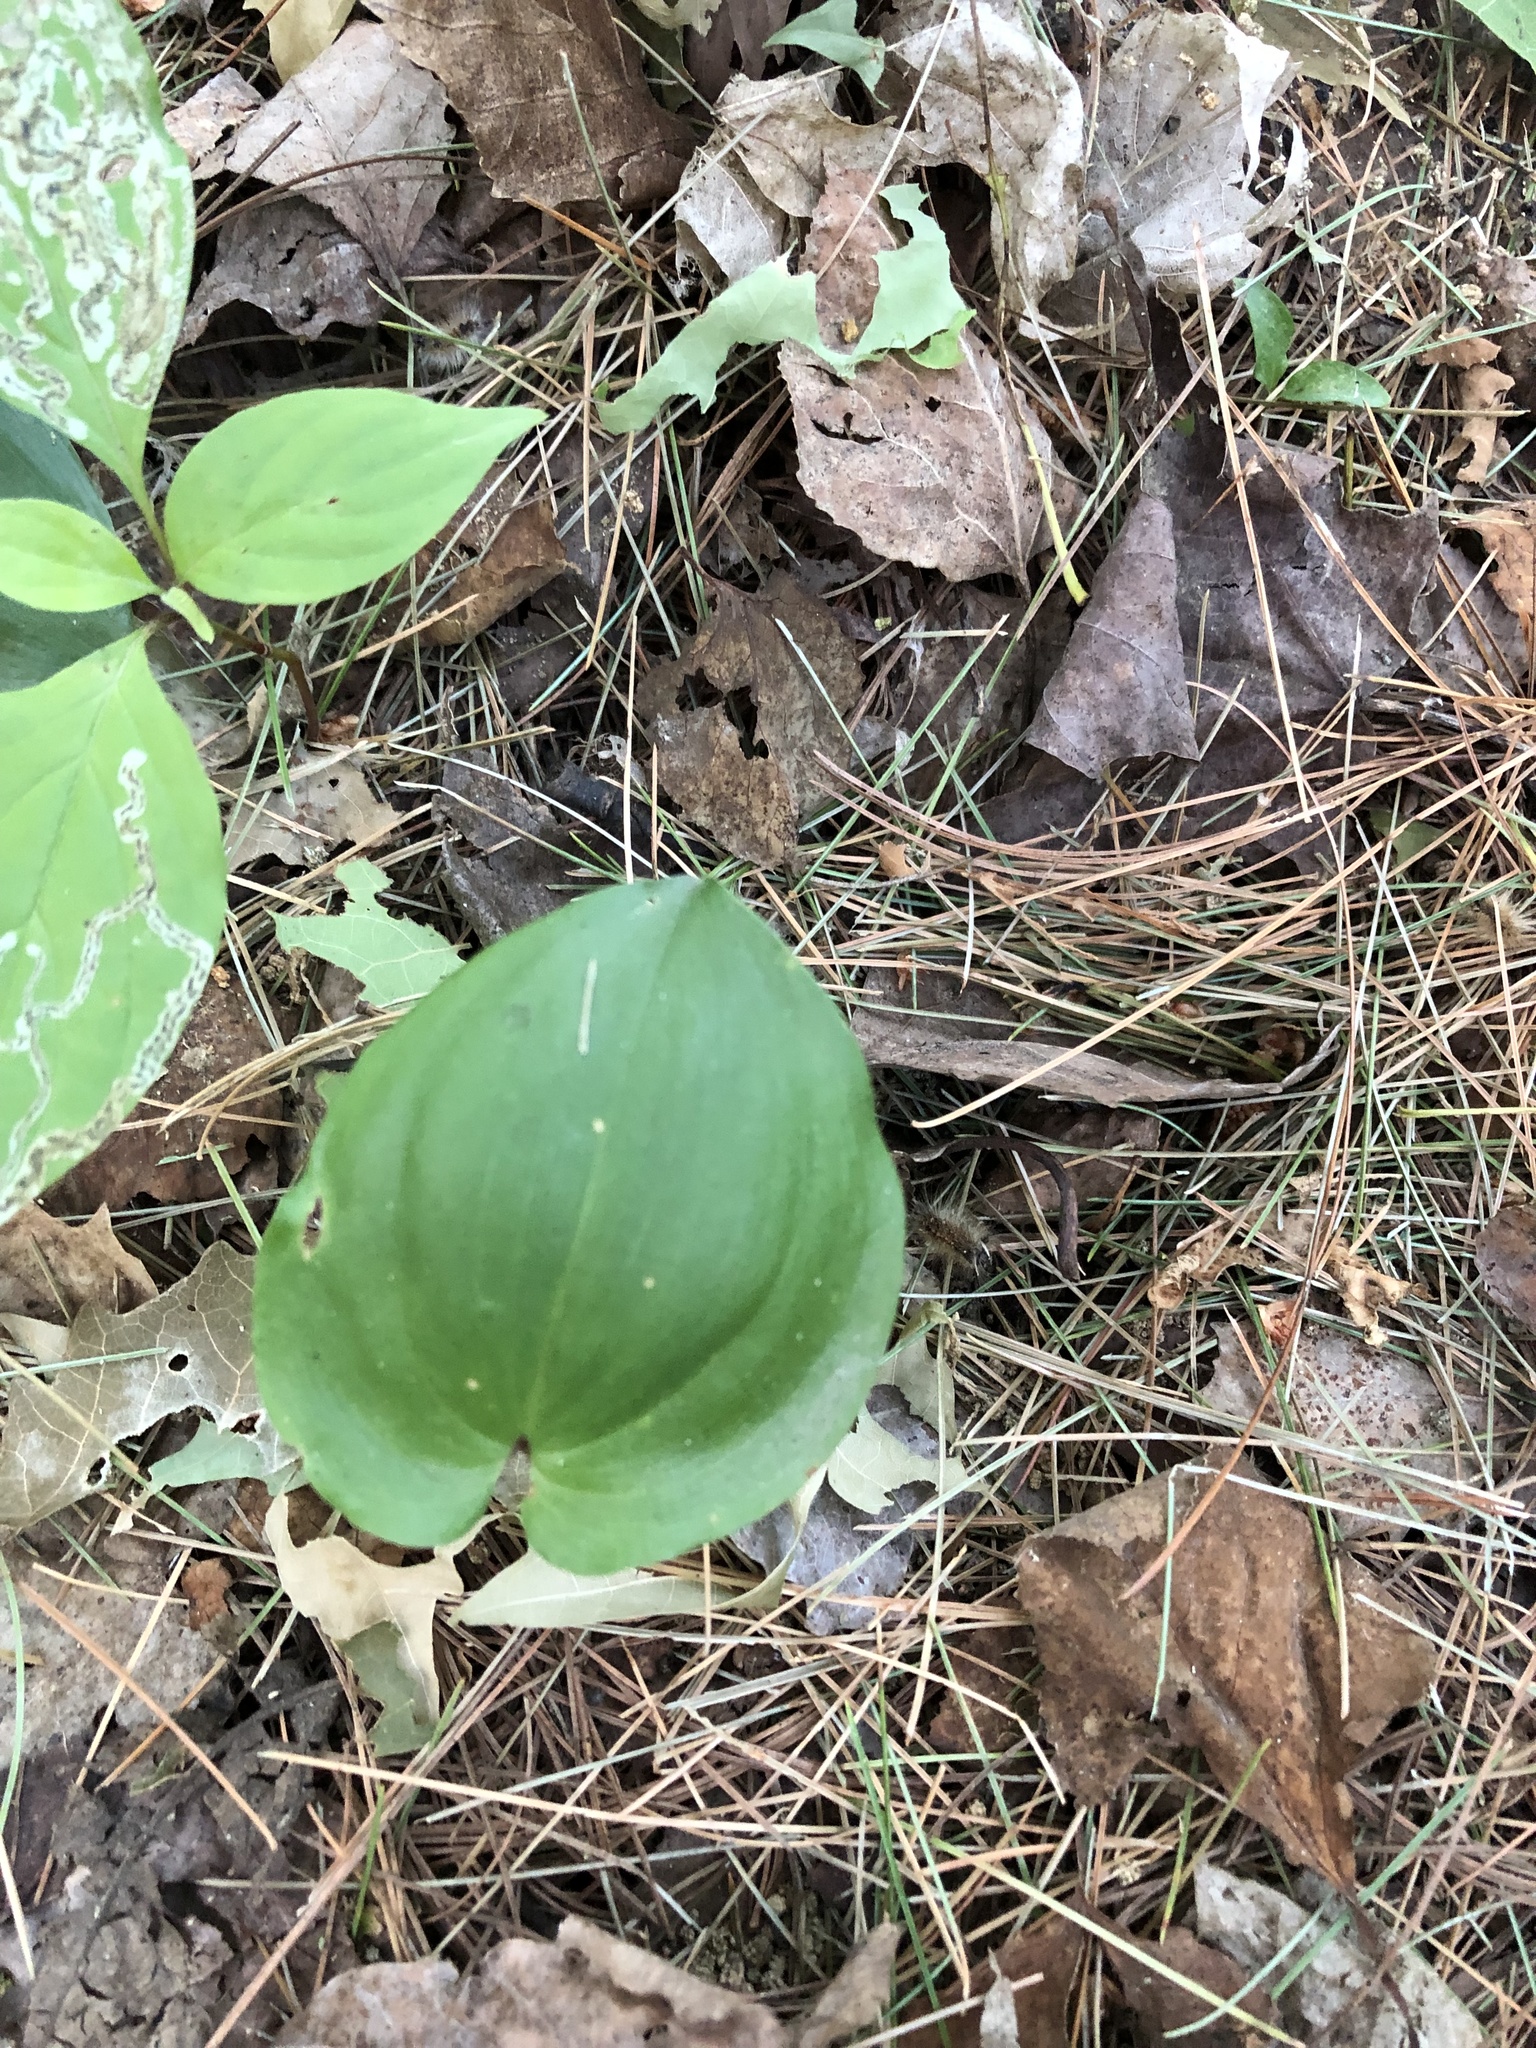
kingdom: Plantae
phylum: Tracheophyta
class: Liliopsida
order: Asparagales
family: Asparagaceae
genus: Maianthemum
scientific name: Maianthemum canadense
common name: False lily-of-the-valley
